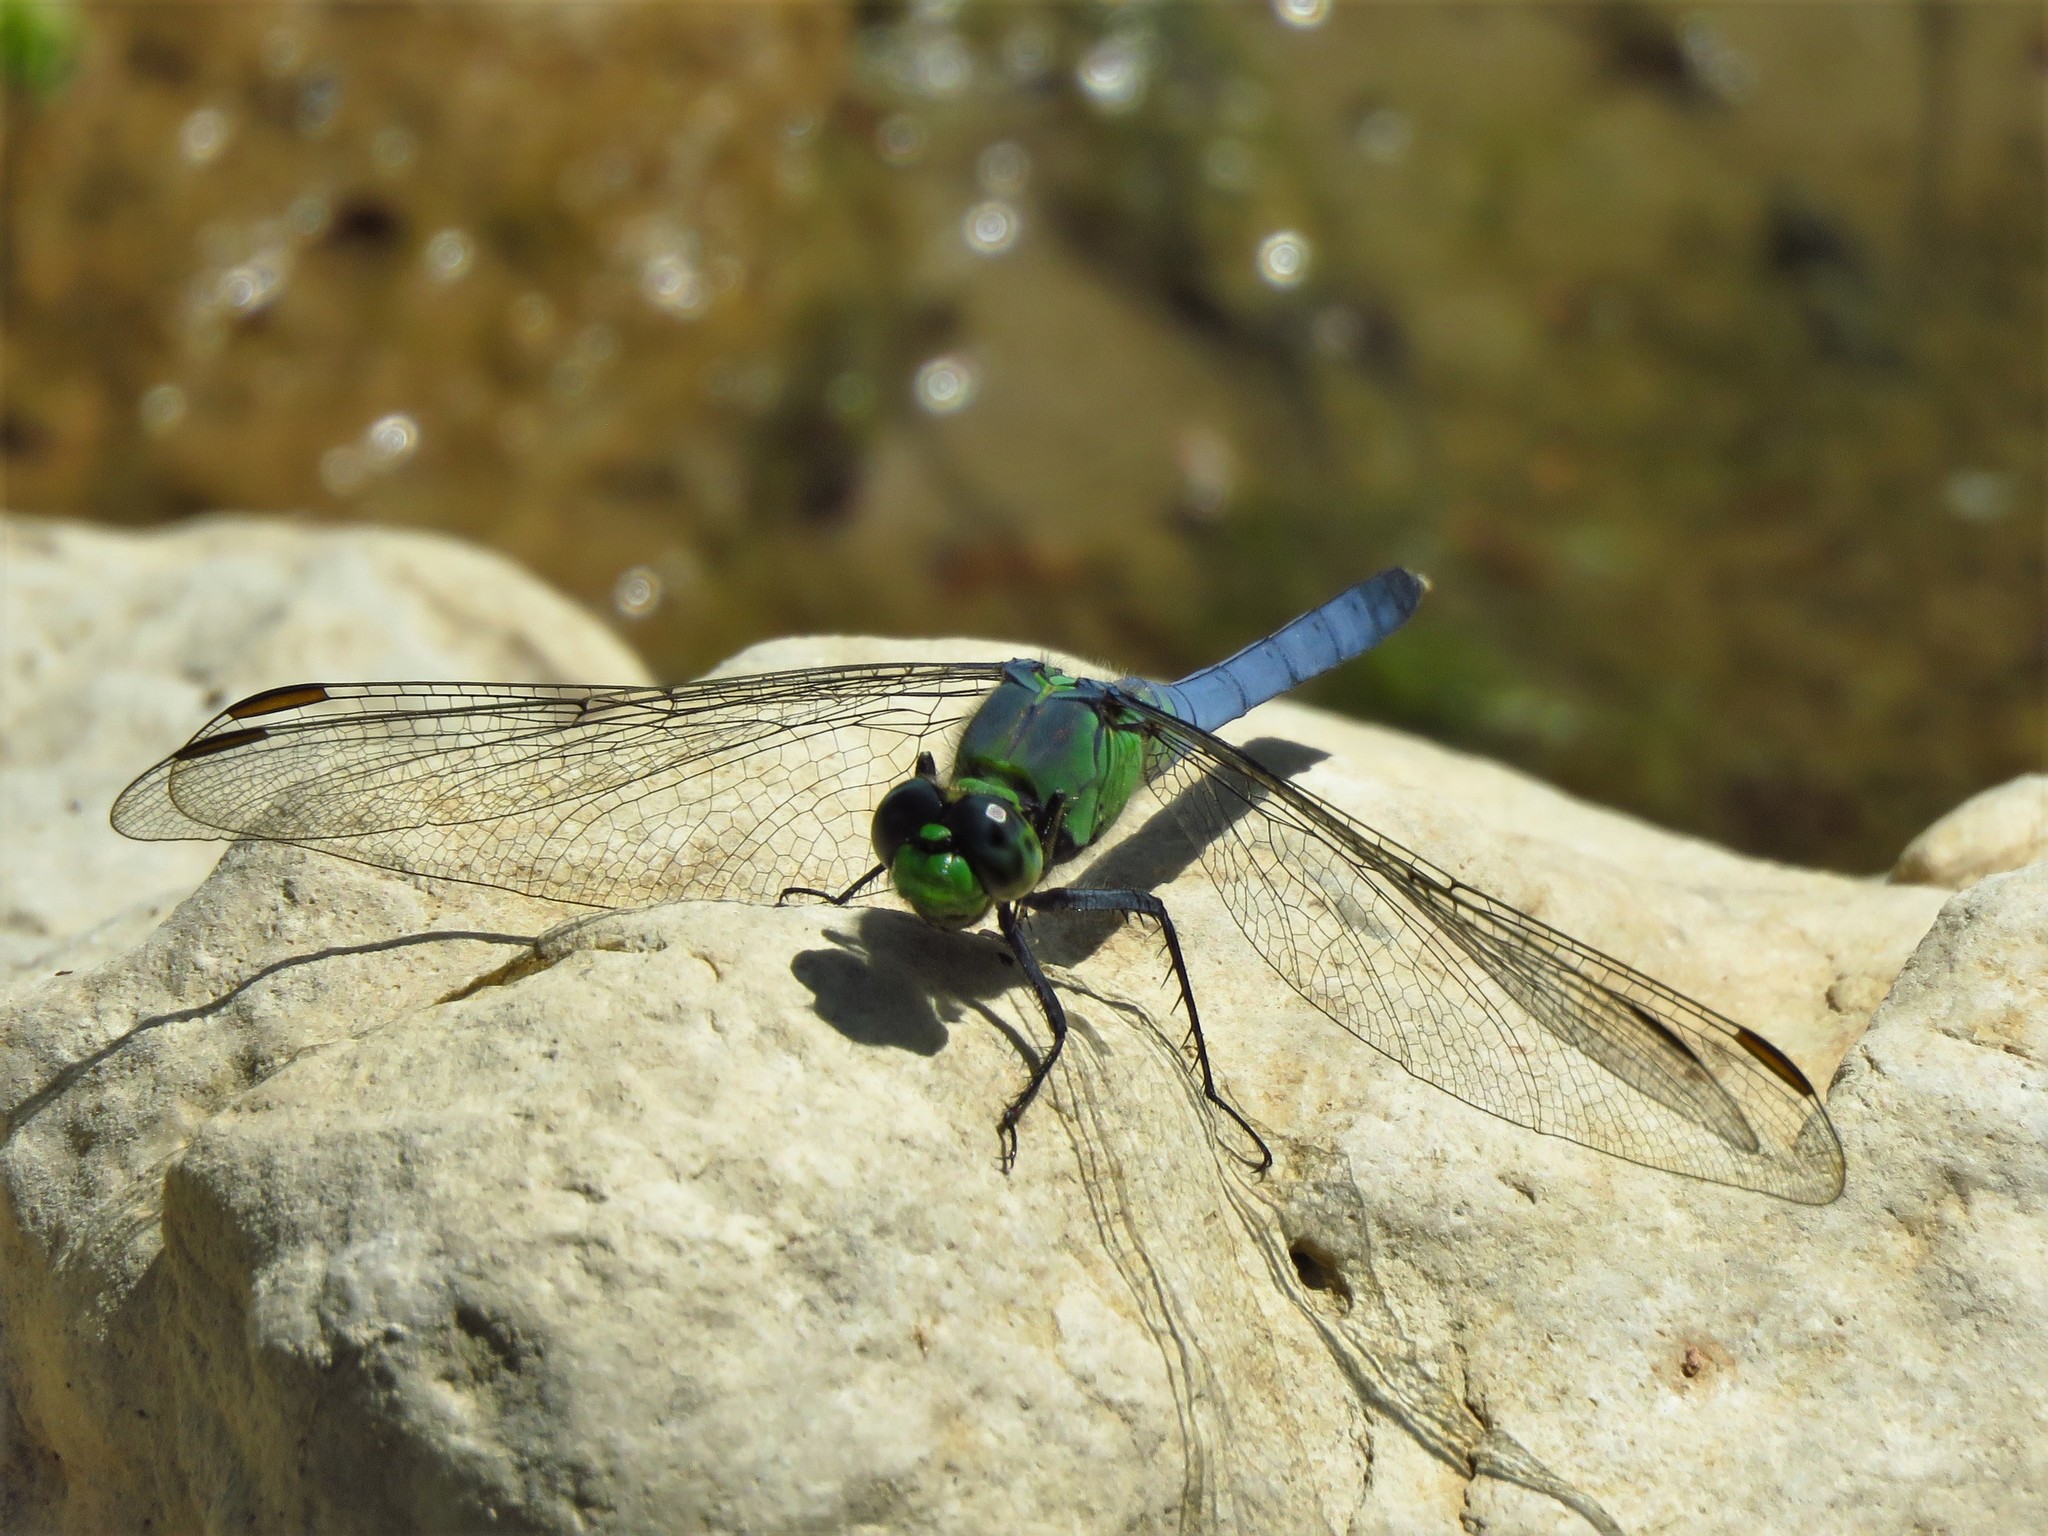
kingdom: Animalia
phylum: Arthropoda
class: Insecta
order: Odonata
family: Libellulidae
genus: Erythemis
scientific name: Erythemis simplicicollis
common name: Eastern pondhawk
